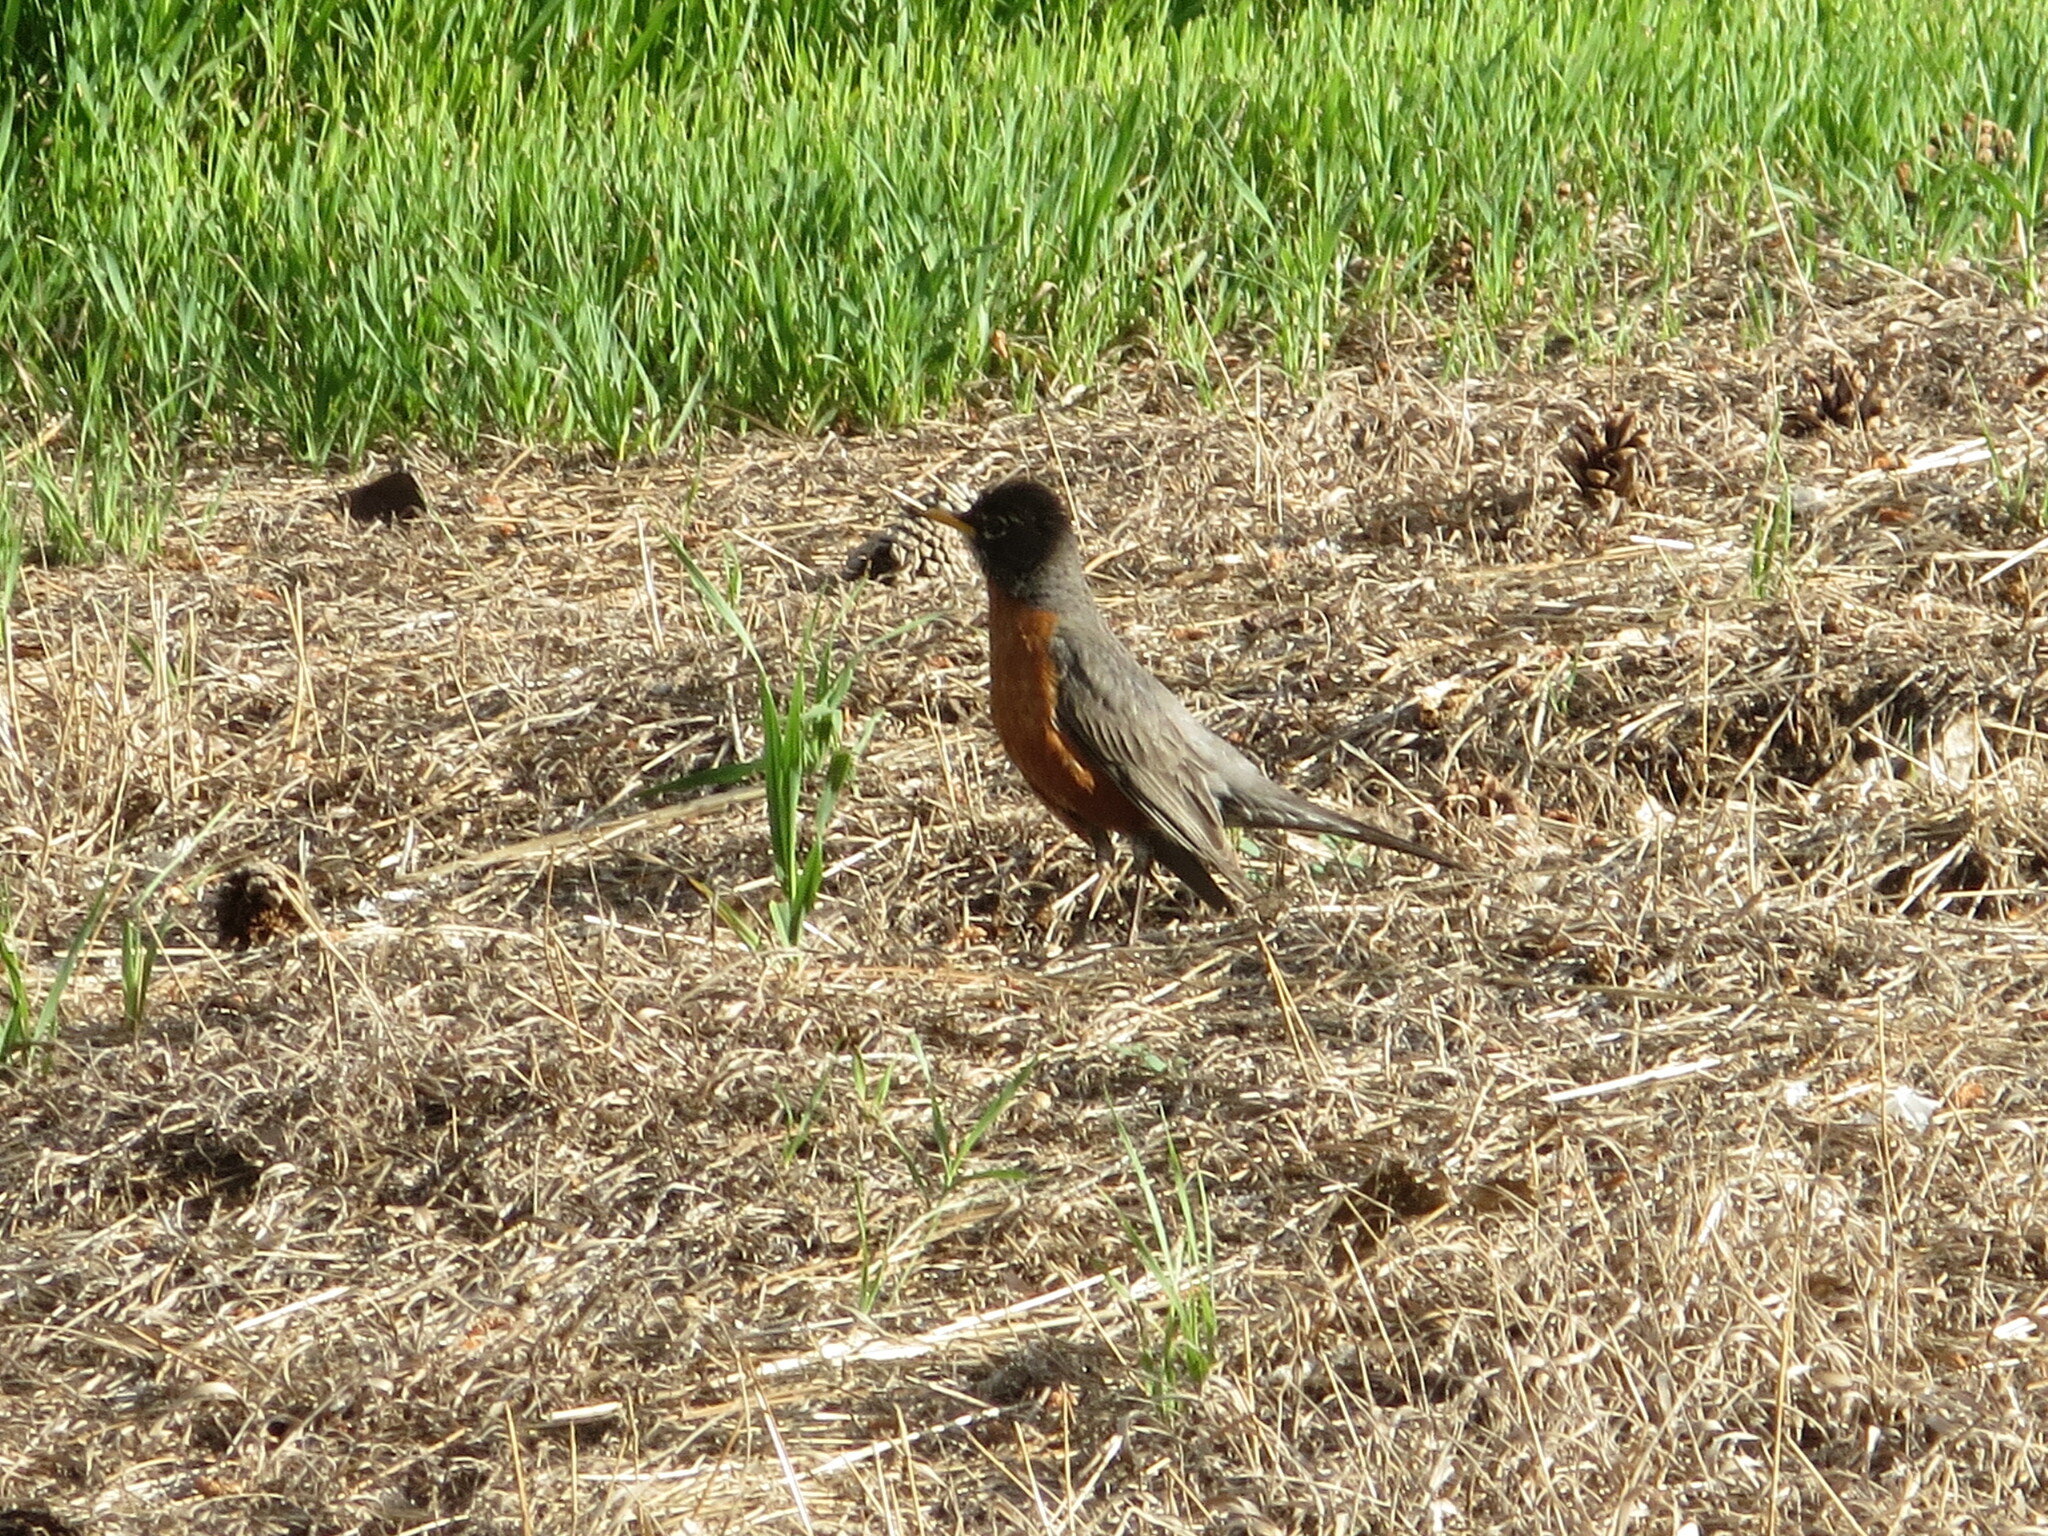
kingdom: Animalia
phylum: Chordata
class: Aves
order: Passeriformes
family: Turdidae
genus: Turdus
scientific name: Turdus migratorius
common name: American robin
